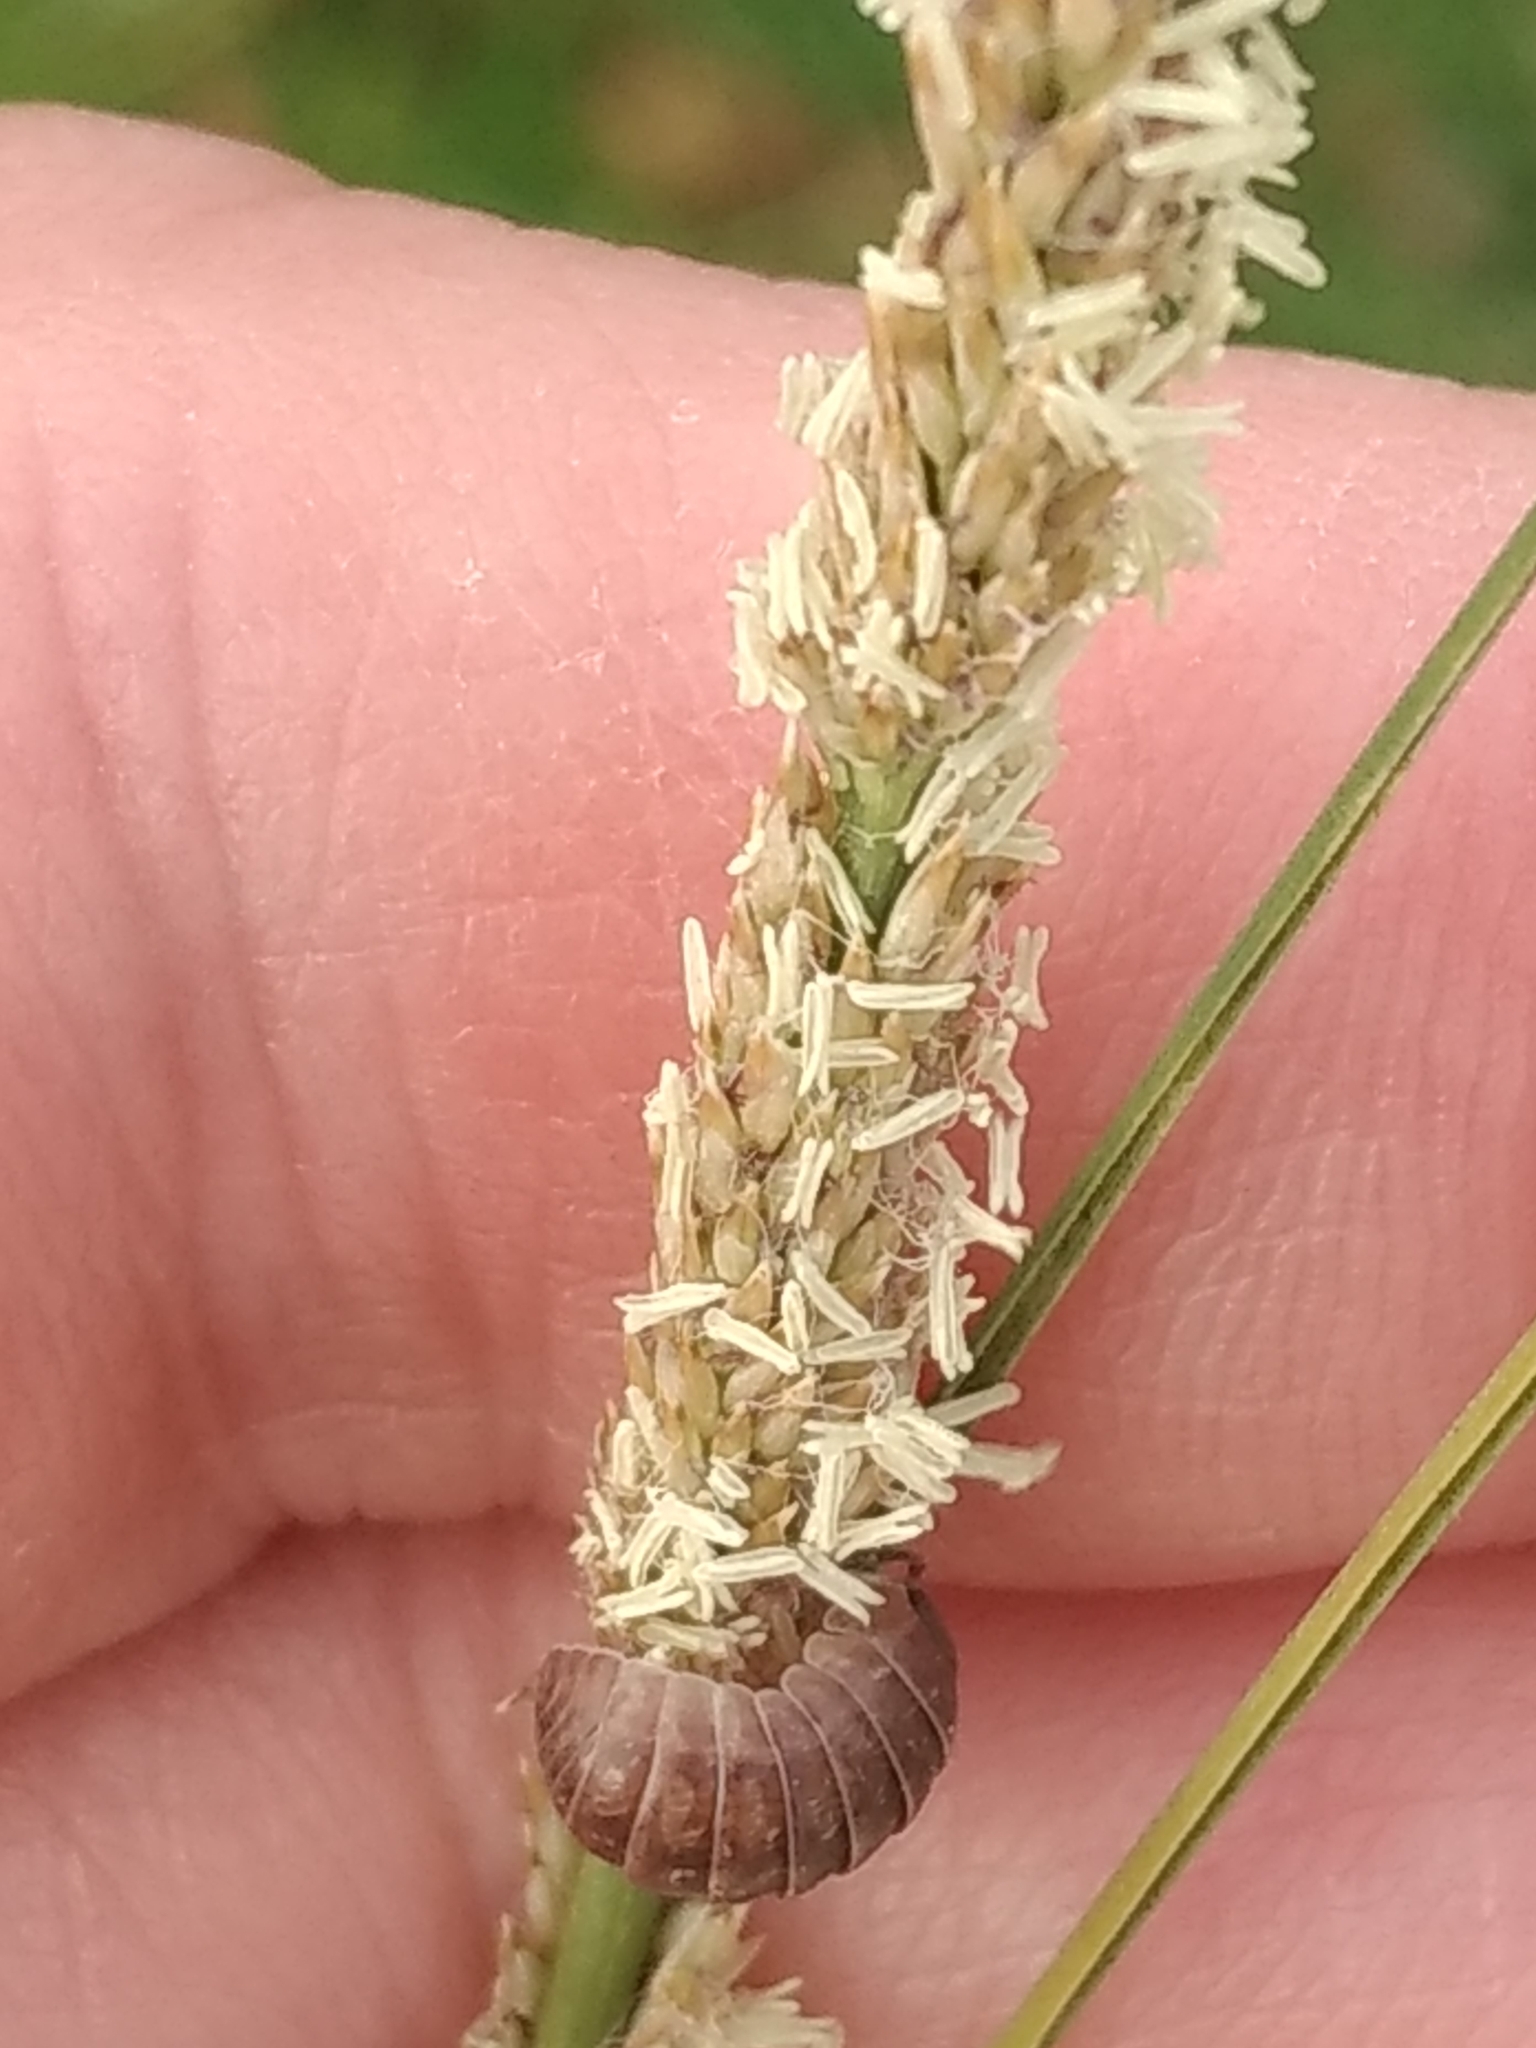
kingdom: Animalia
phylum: Arthropoda
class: Malacostraca
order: Isopoda
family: Armadillidiidae
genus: Armadillidium
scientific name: Armadillidium vulgare
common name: Common pill woodlouse
